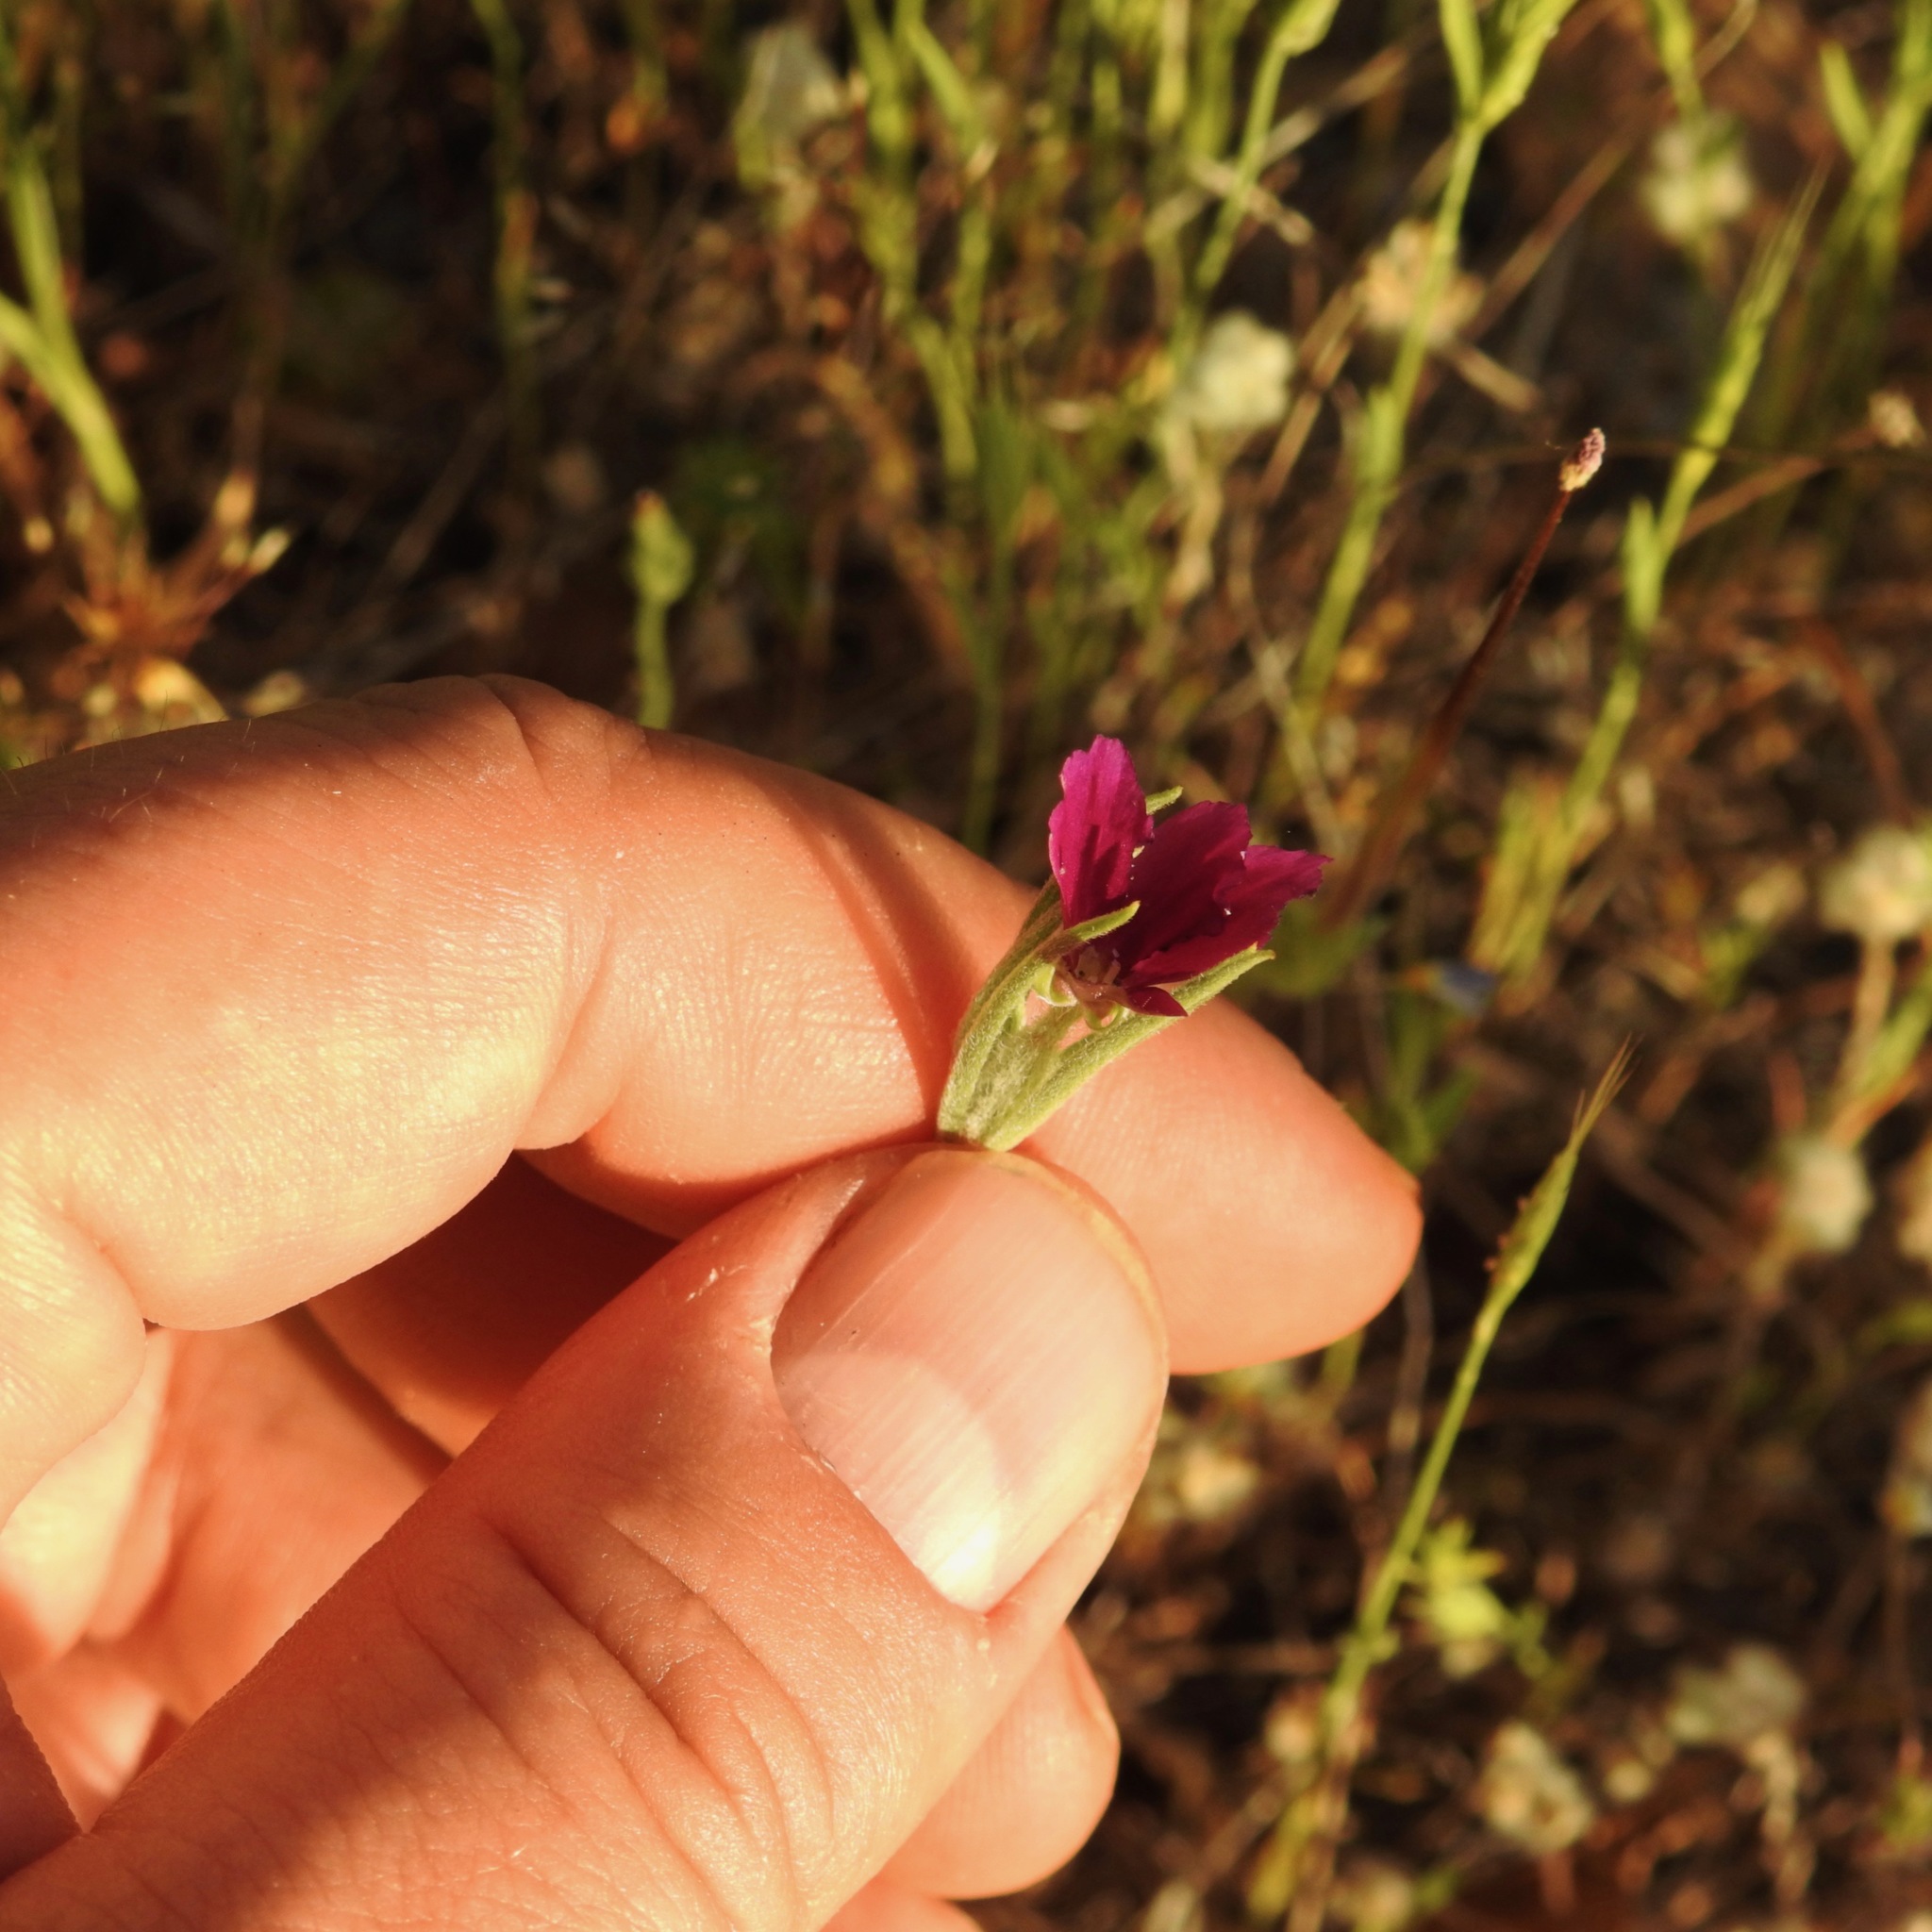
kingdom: Plantae
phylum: Tracheophyta
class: Magnoliopsida
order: Myrtales
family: Onagraceae
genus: Clarkia
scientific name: Clarkia purpurea
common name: Purple clarkia
